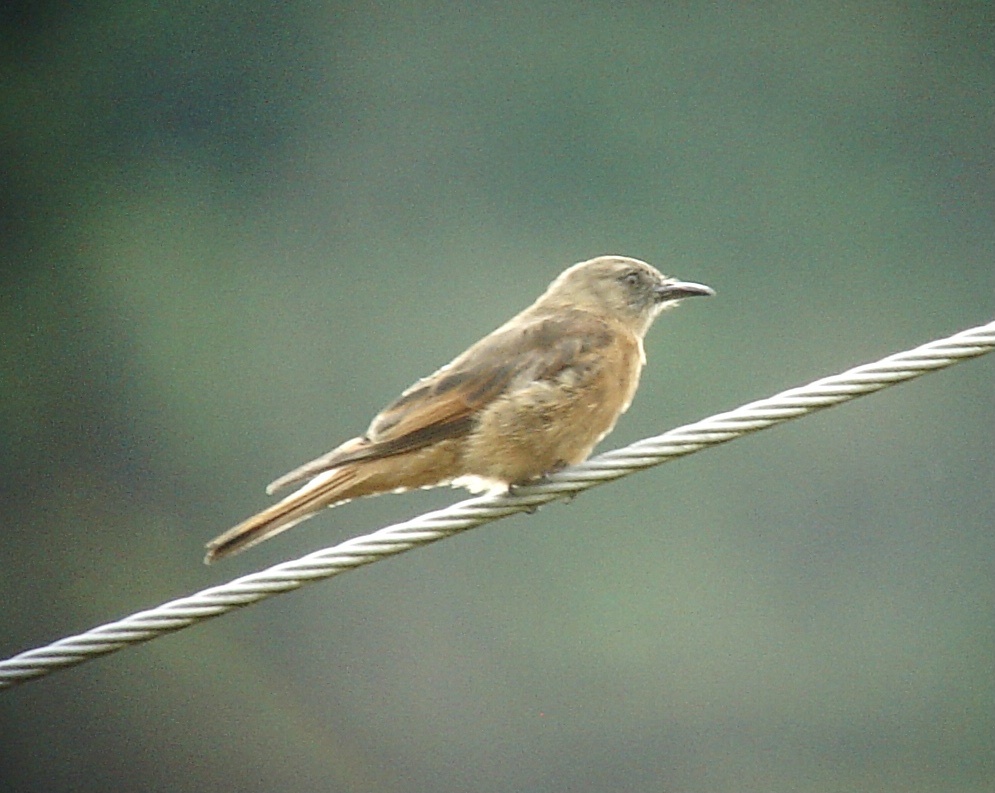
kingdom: Animalia
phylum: Chordata
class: Aves
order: Passeriformes
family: Tyrannidae
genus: Hirundinea
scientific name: Hirundinea ferruginea
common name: Cliff flycatcher
